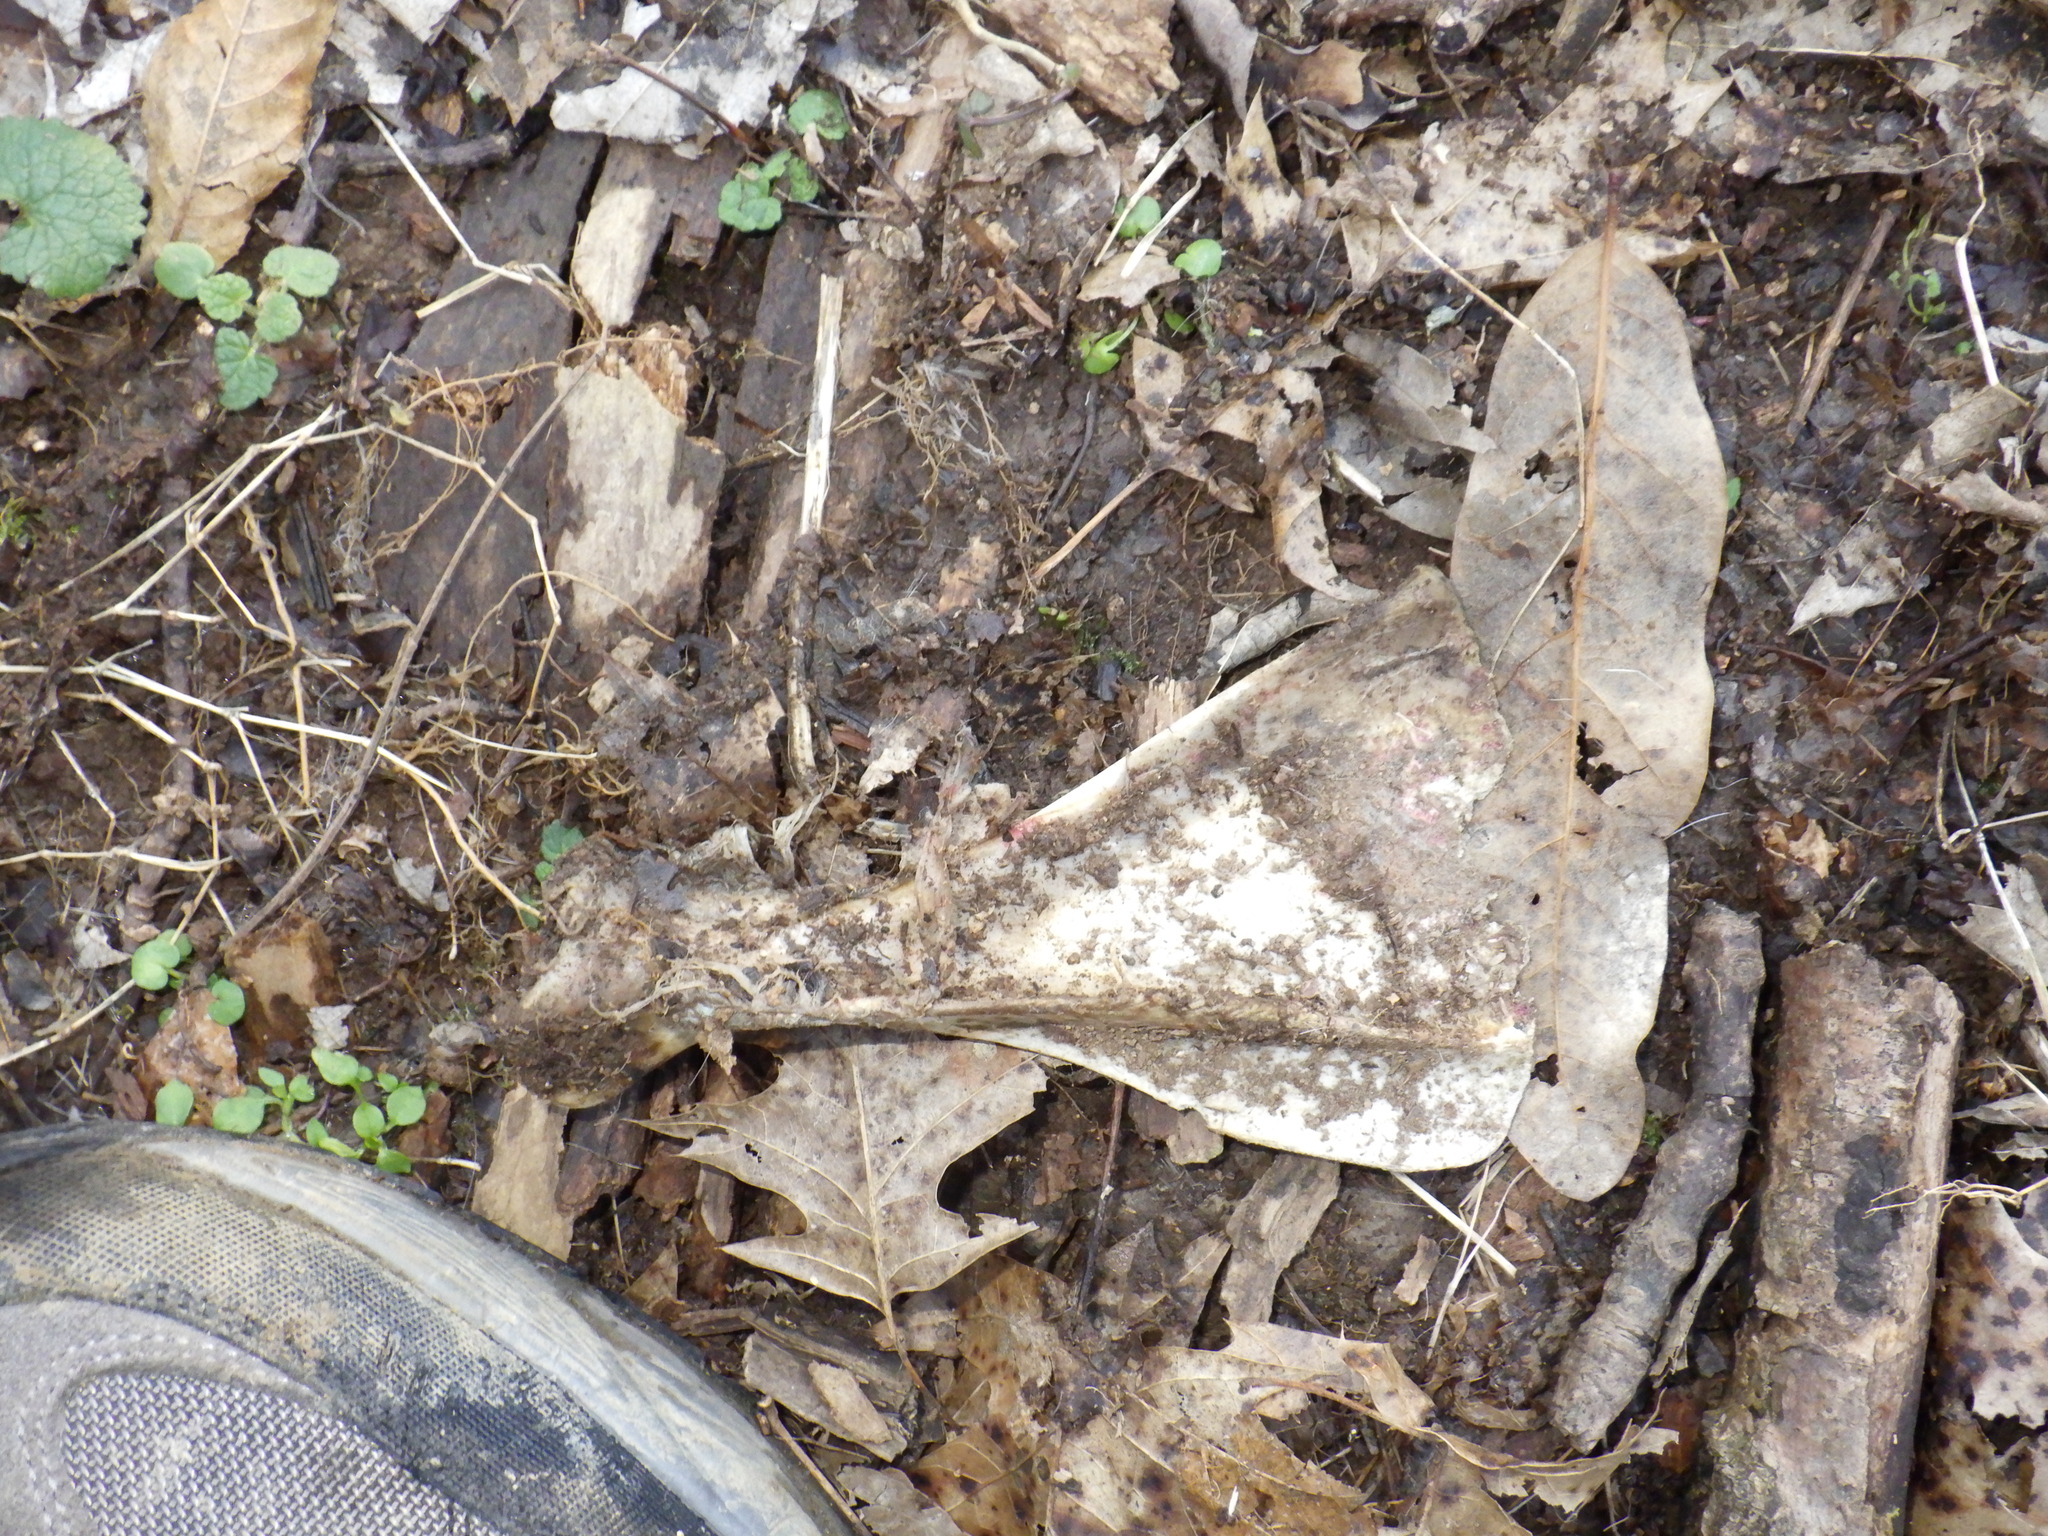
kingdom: Animalia
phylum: Chordata
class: Mammalia
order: Artiodactyla
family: Cervidae
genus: Odocoileus
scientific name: Odocoileus virginianus
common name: White-tailed deer
